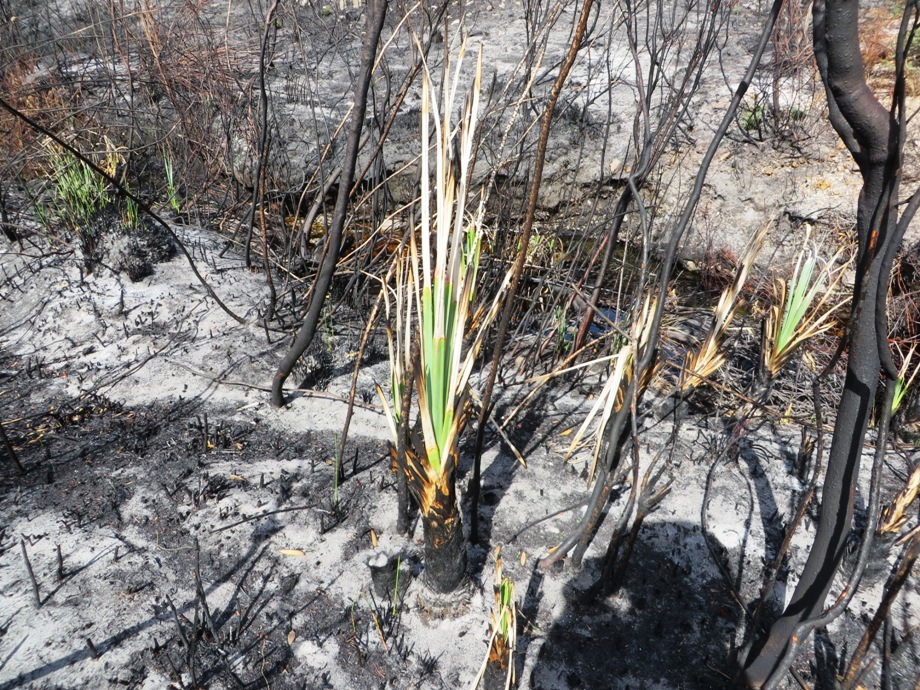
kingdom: Plantae
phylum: Tracheophyta
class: Liliopsida
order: Poales
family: Thurniaceae
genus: Prionium
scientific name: Prionium serratum
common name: Palmiet
